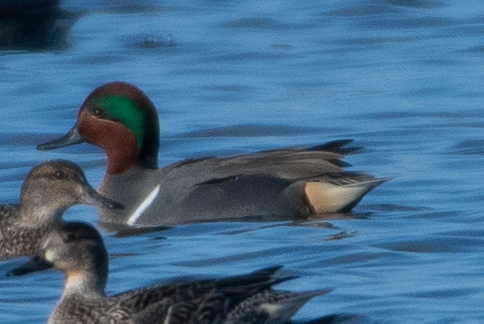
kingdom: Animalia
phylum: Chordata
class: Aves
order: Anseriformes
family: Anatidae
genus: Anas
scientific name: Anas crecca
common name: Eurasian teal
